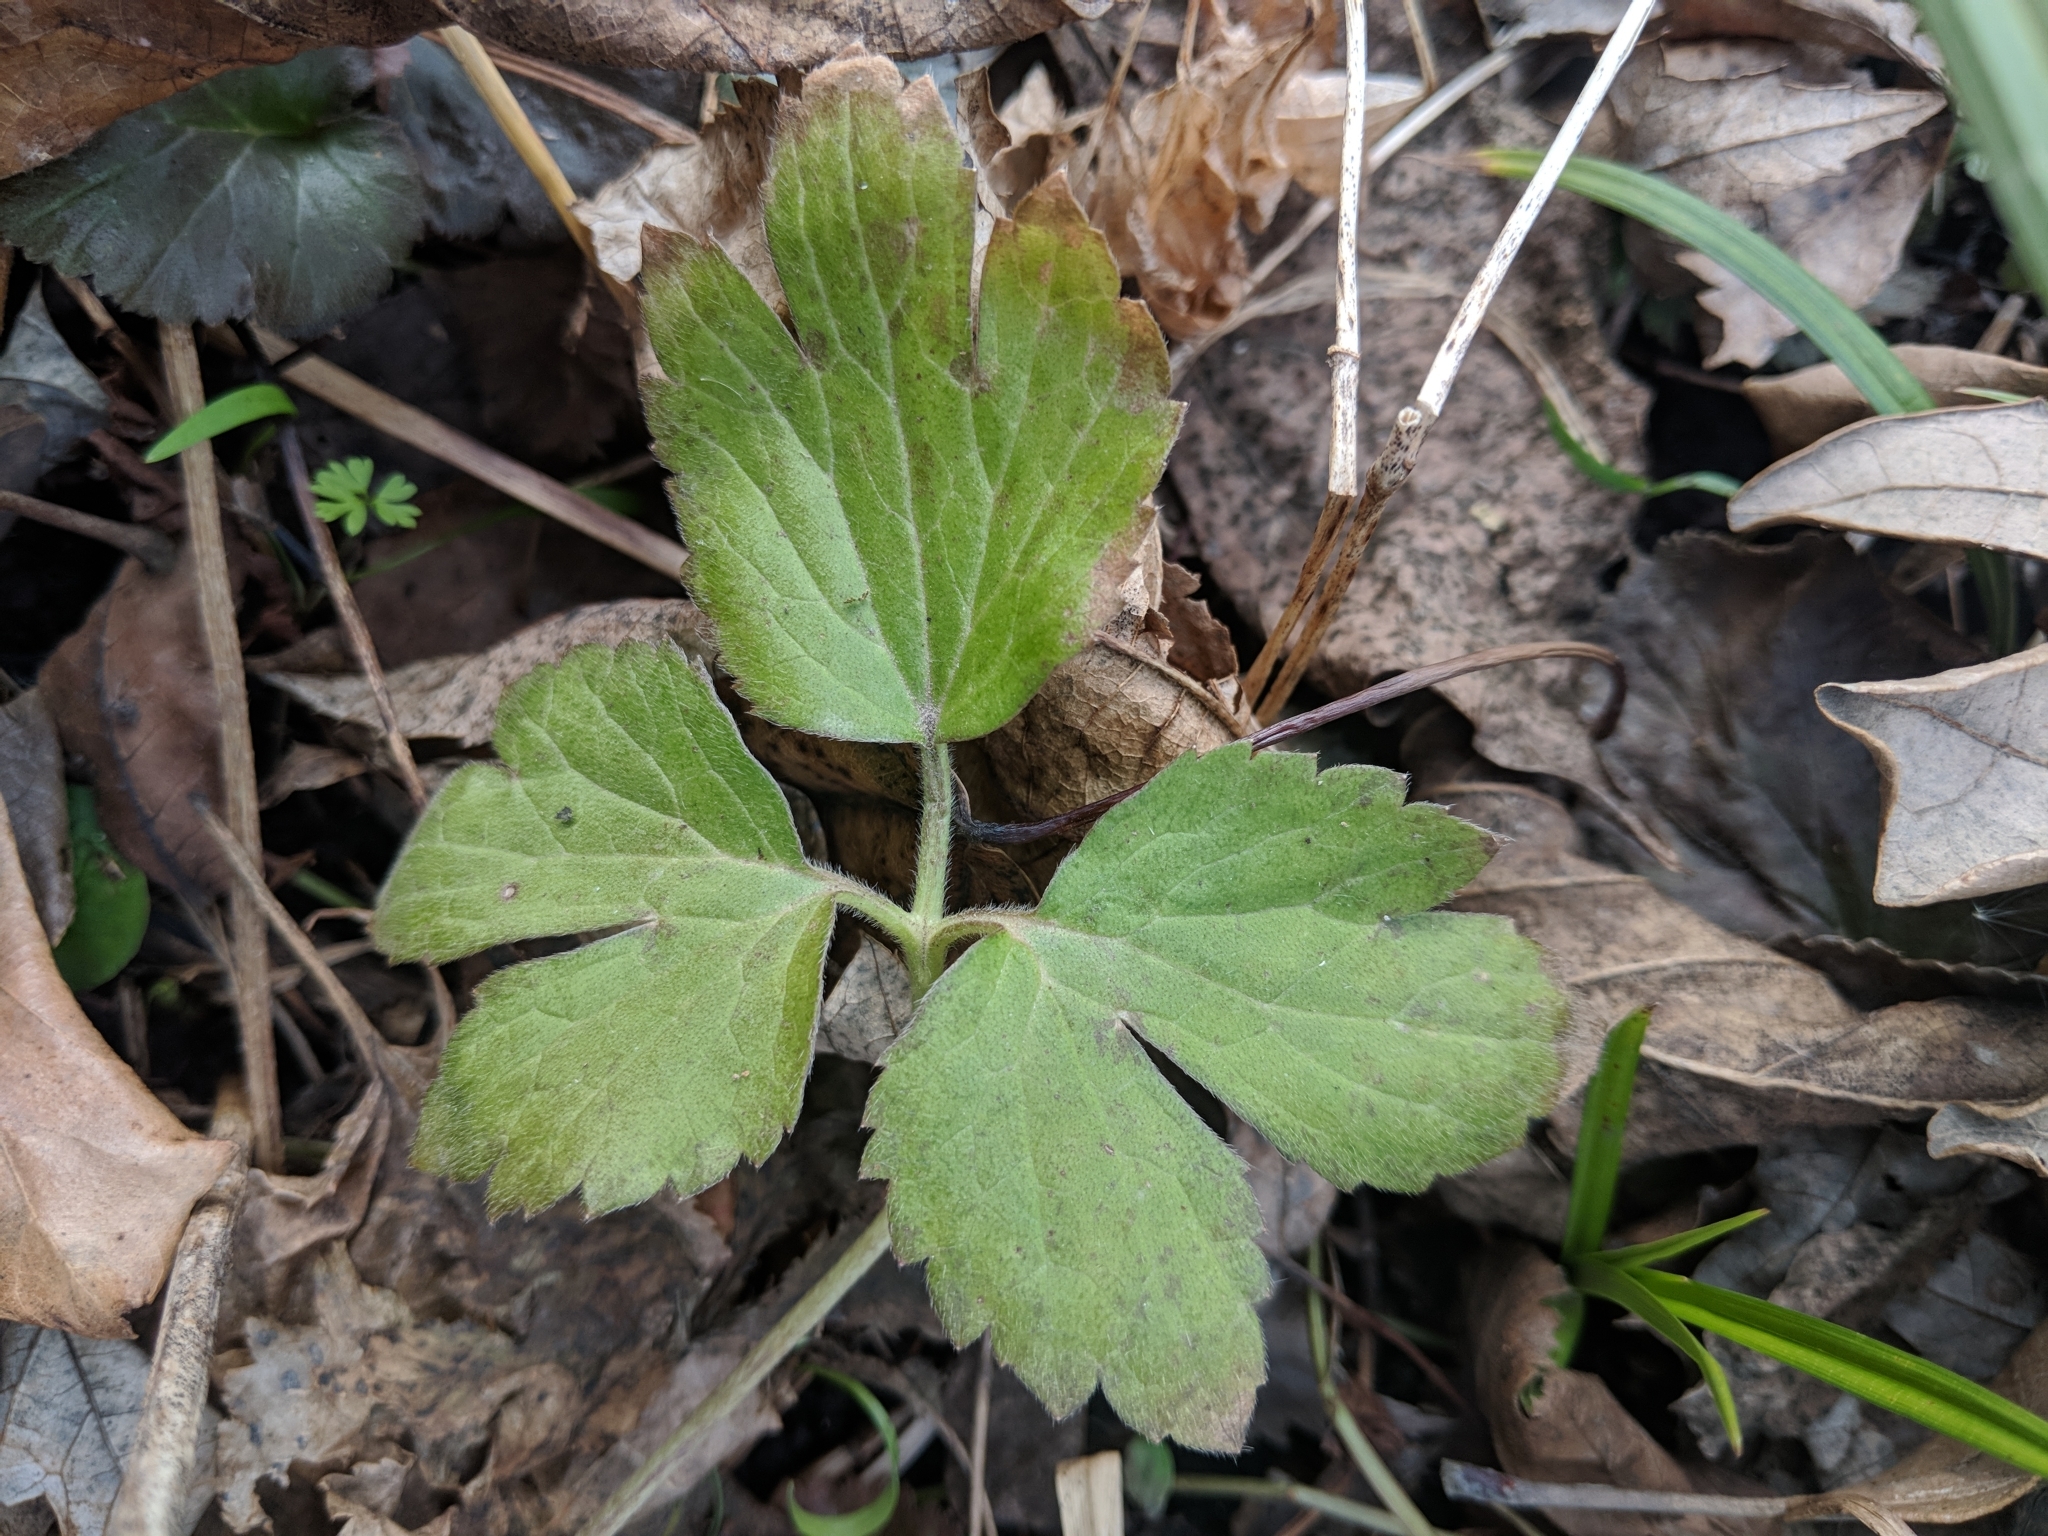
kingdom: Plantae
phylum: Tracheophyta
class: Magnoliopsida
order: Ranunculales
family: Ranunculaceae
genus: Ranunculus
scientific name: Ranunculus hispidus
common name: Bristly buttercup
